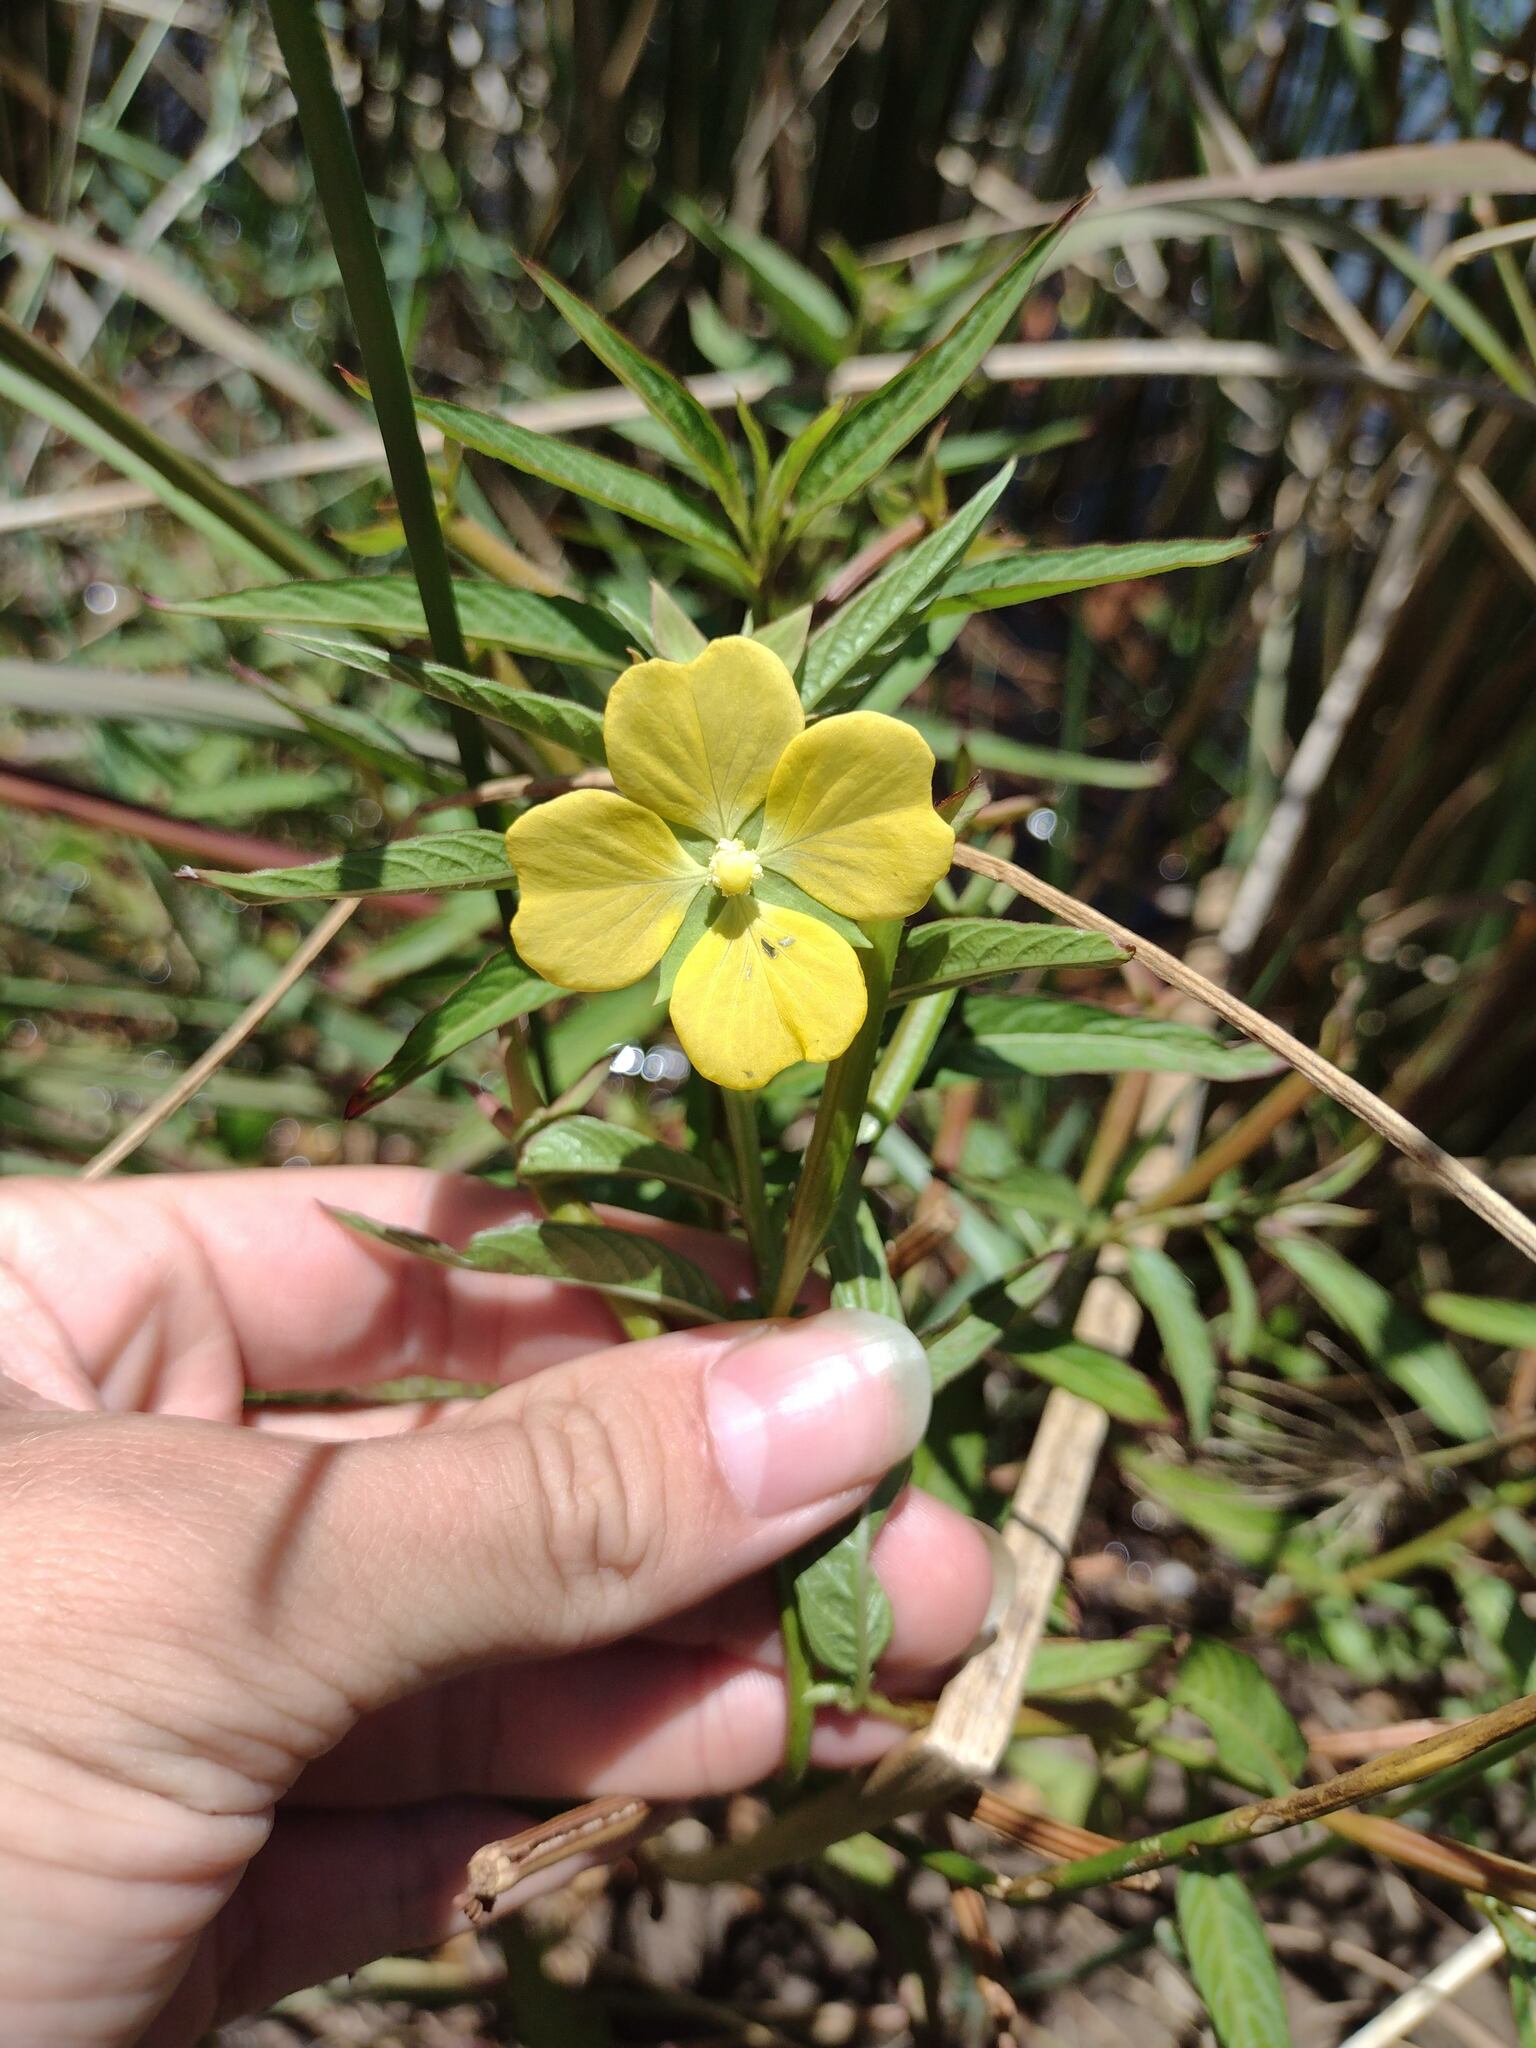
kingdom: Plantae
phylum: Tracheophyta
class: Magnoliopsida
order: Myrtales
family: Onagraceae
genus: Ludwigia
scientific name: Ludwigia octovalvis
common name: Water-primrose
